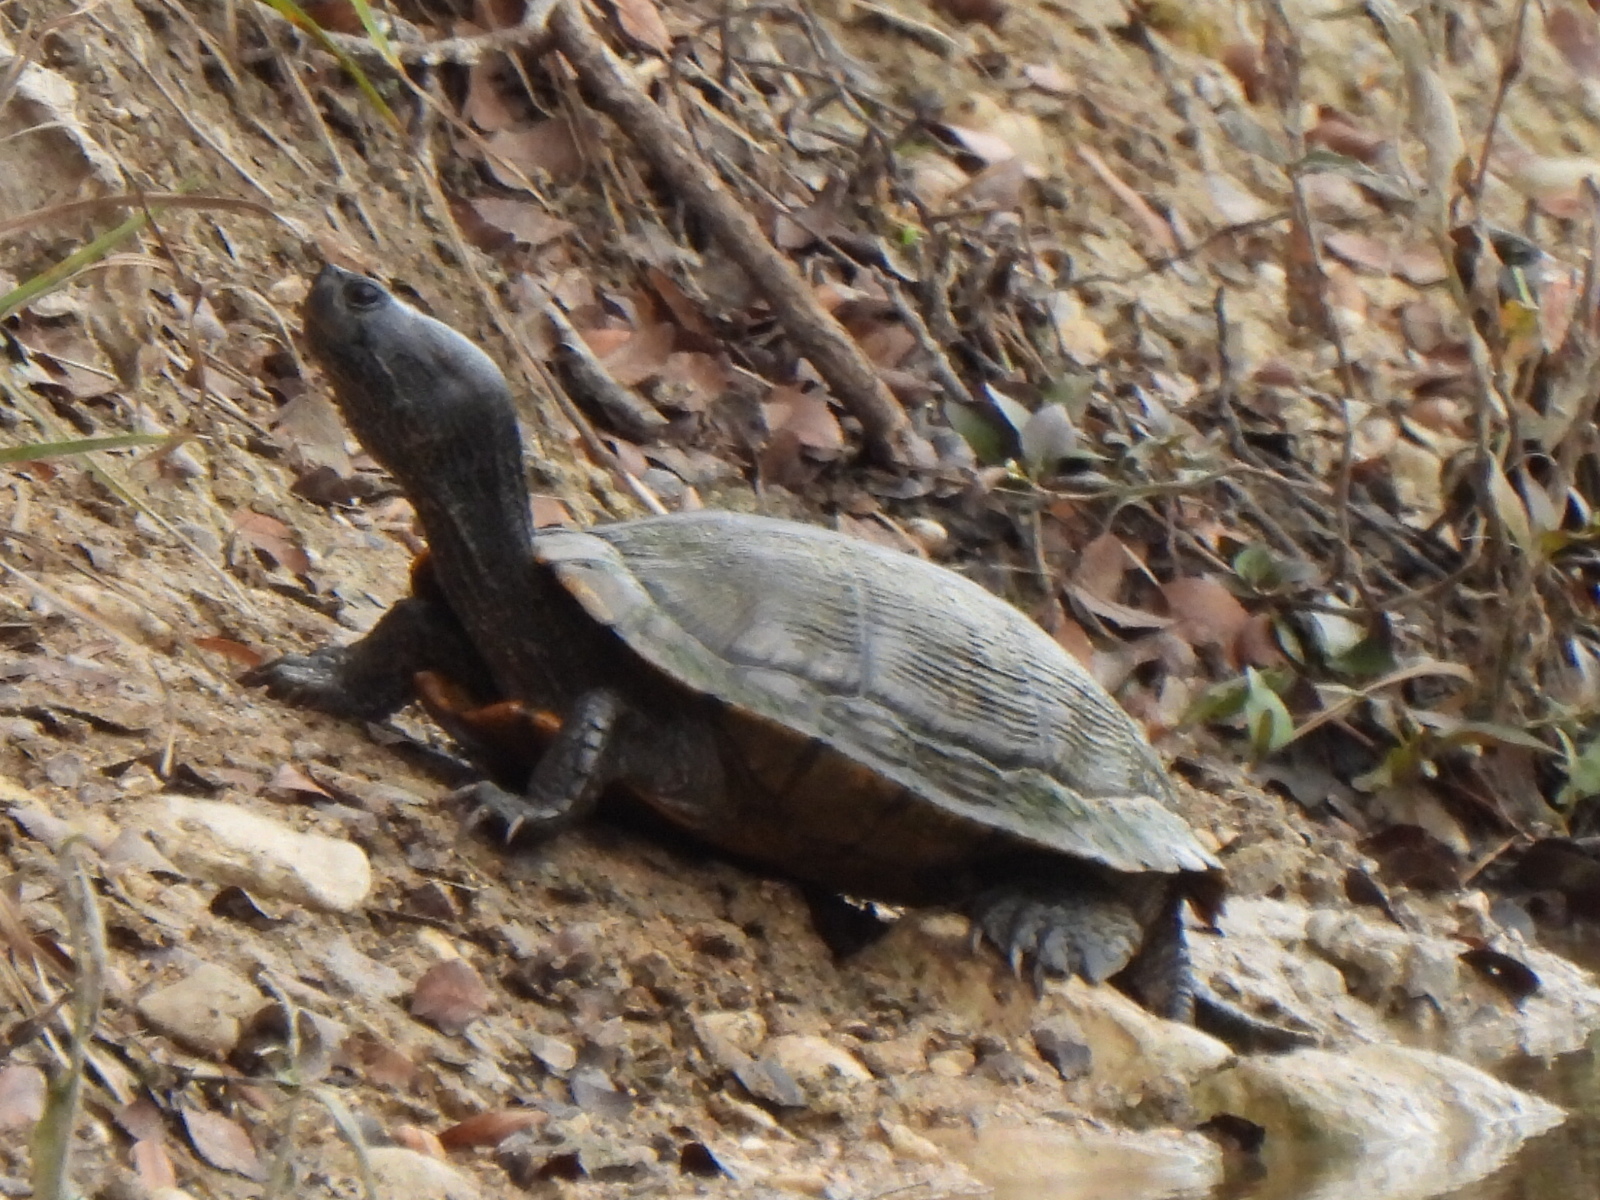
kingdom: Animalia
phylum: Chordata
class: Testudines
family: Emydidae
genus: Trachemys
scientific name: Trachemys scripta
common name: Slider
